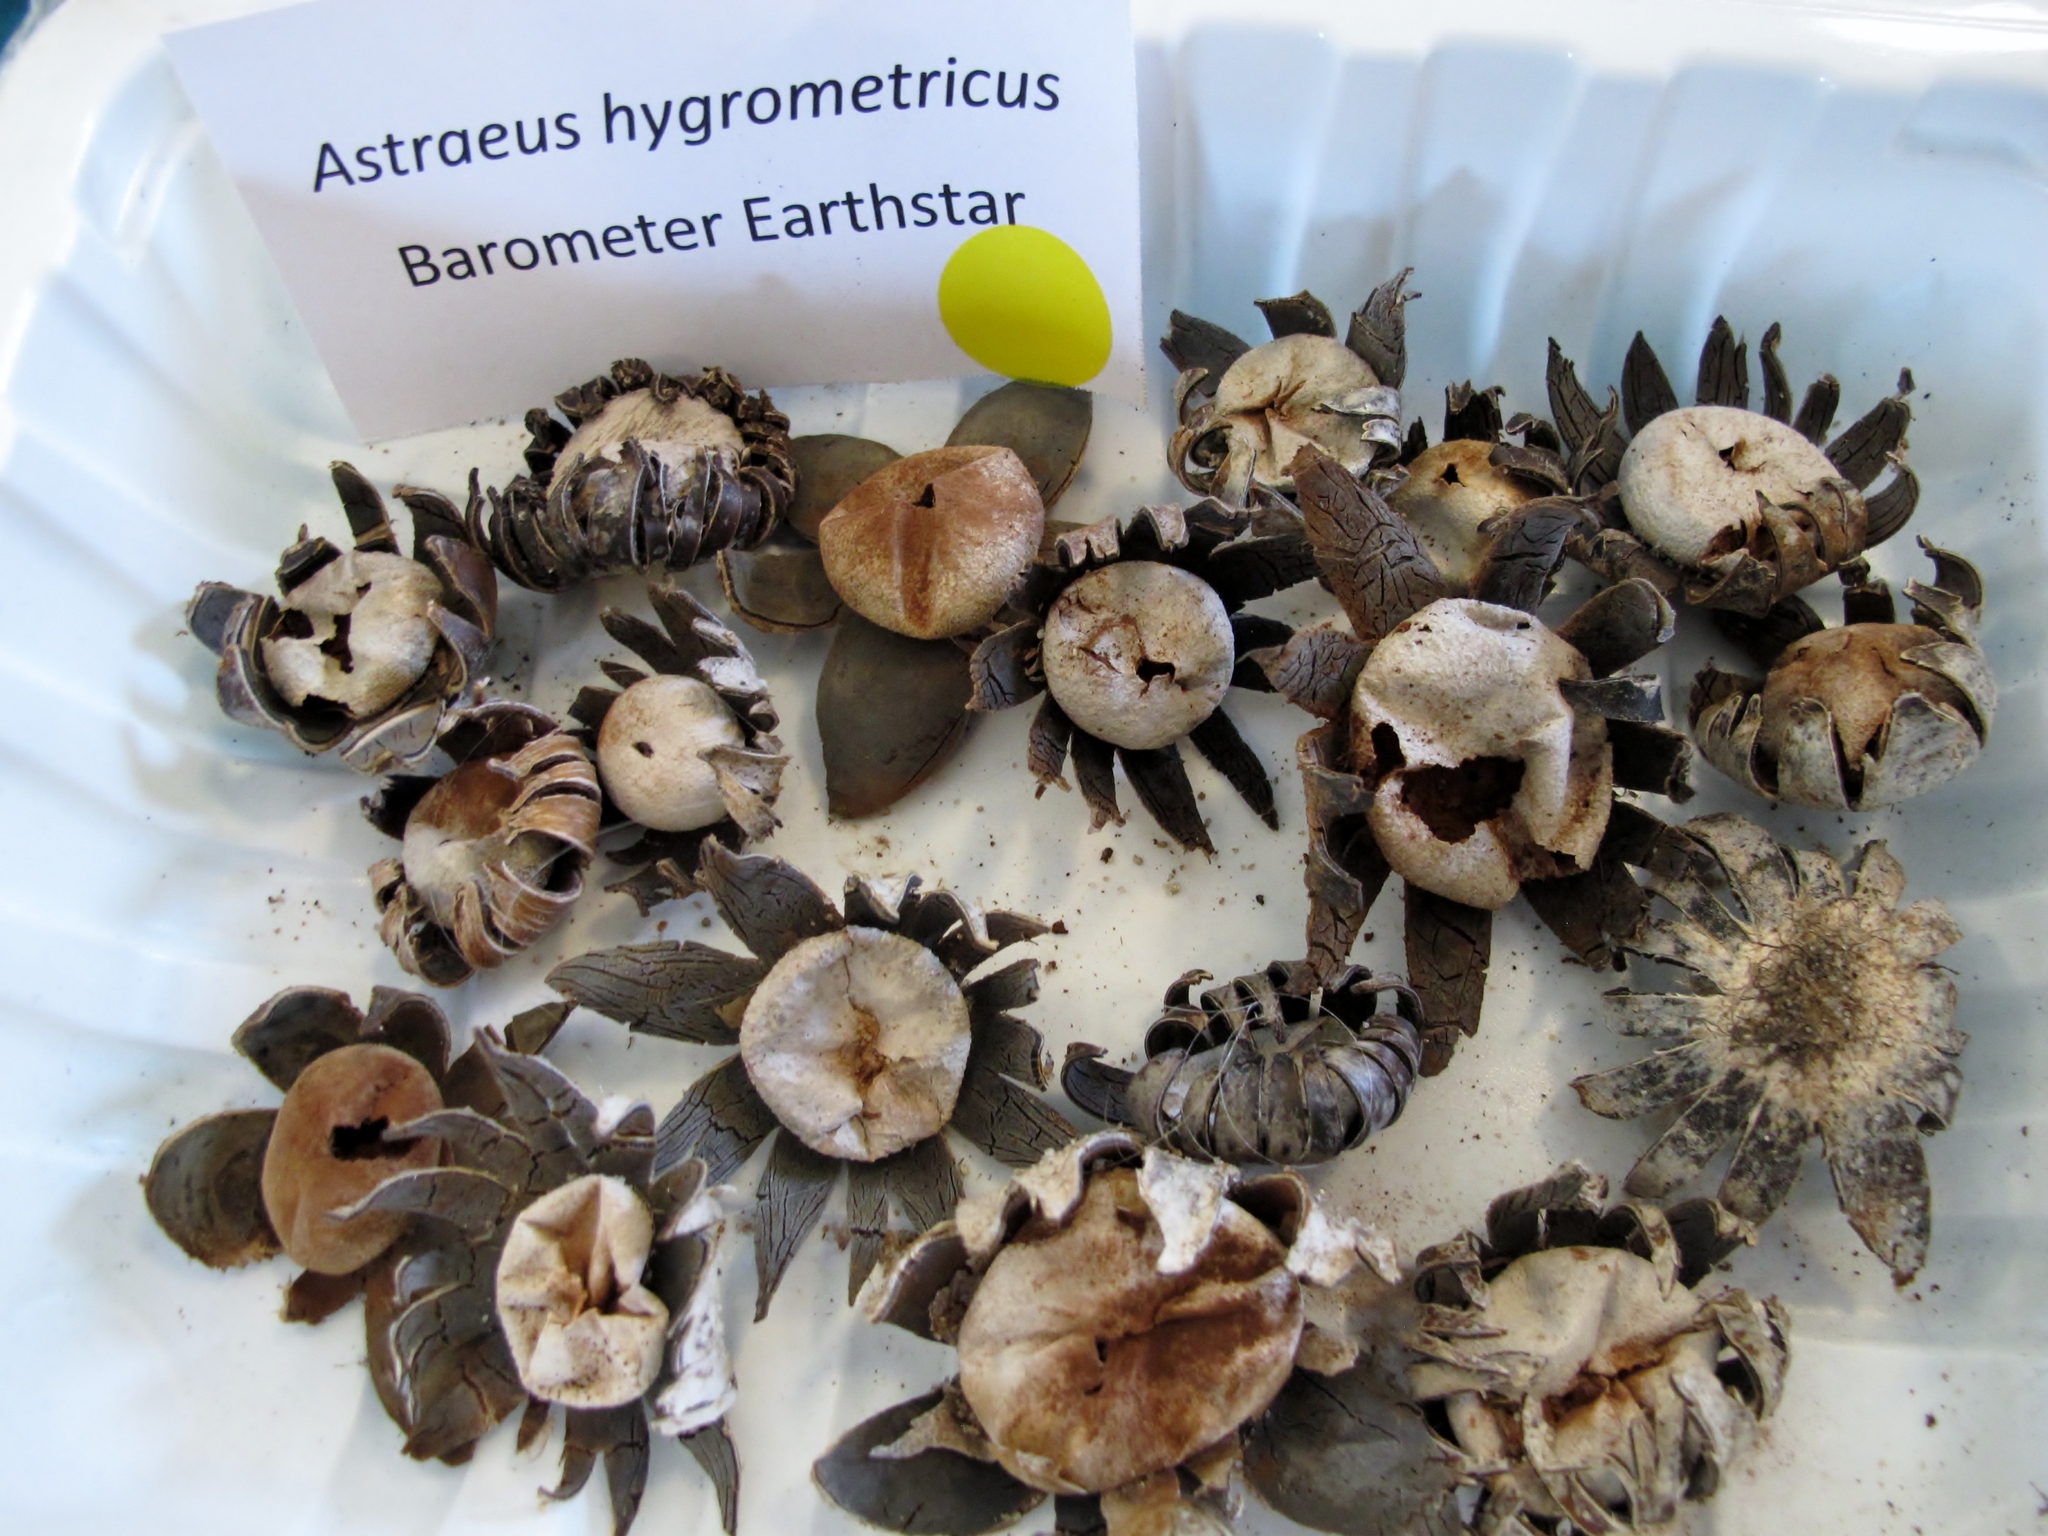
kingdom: Fungi
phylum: Basidiomycota
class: Agaricomycetes
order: Boletales
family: Diplocystidiaceae
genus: Astraeus
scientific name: Astraeus hygrometricus
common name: Barometer earthstar
